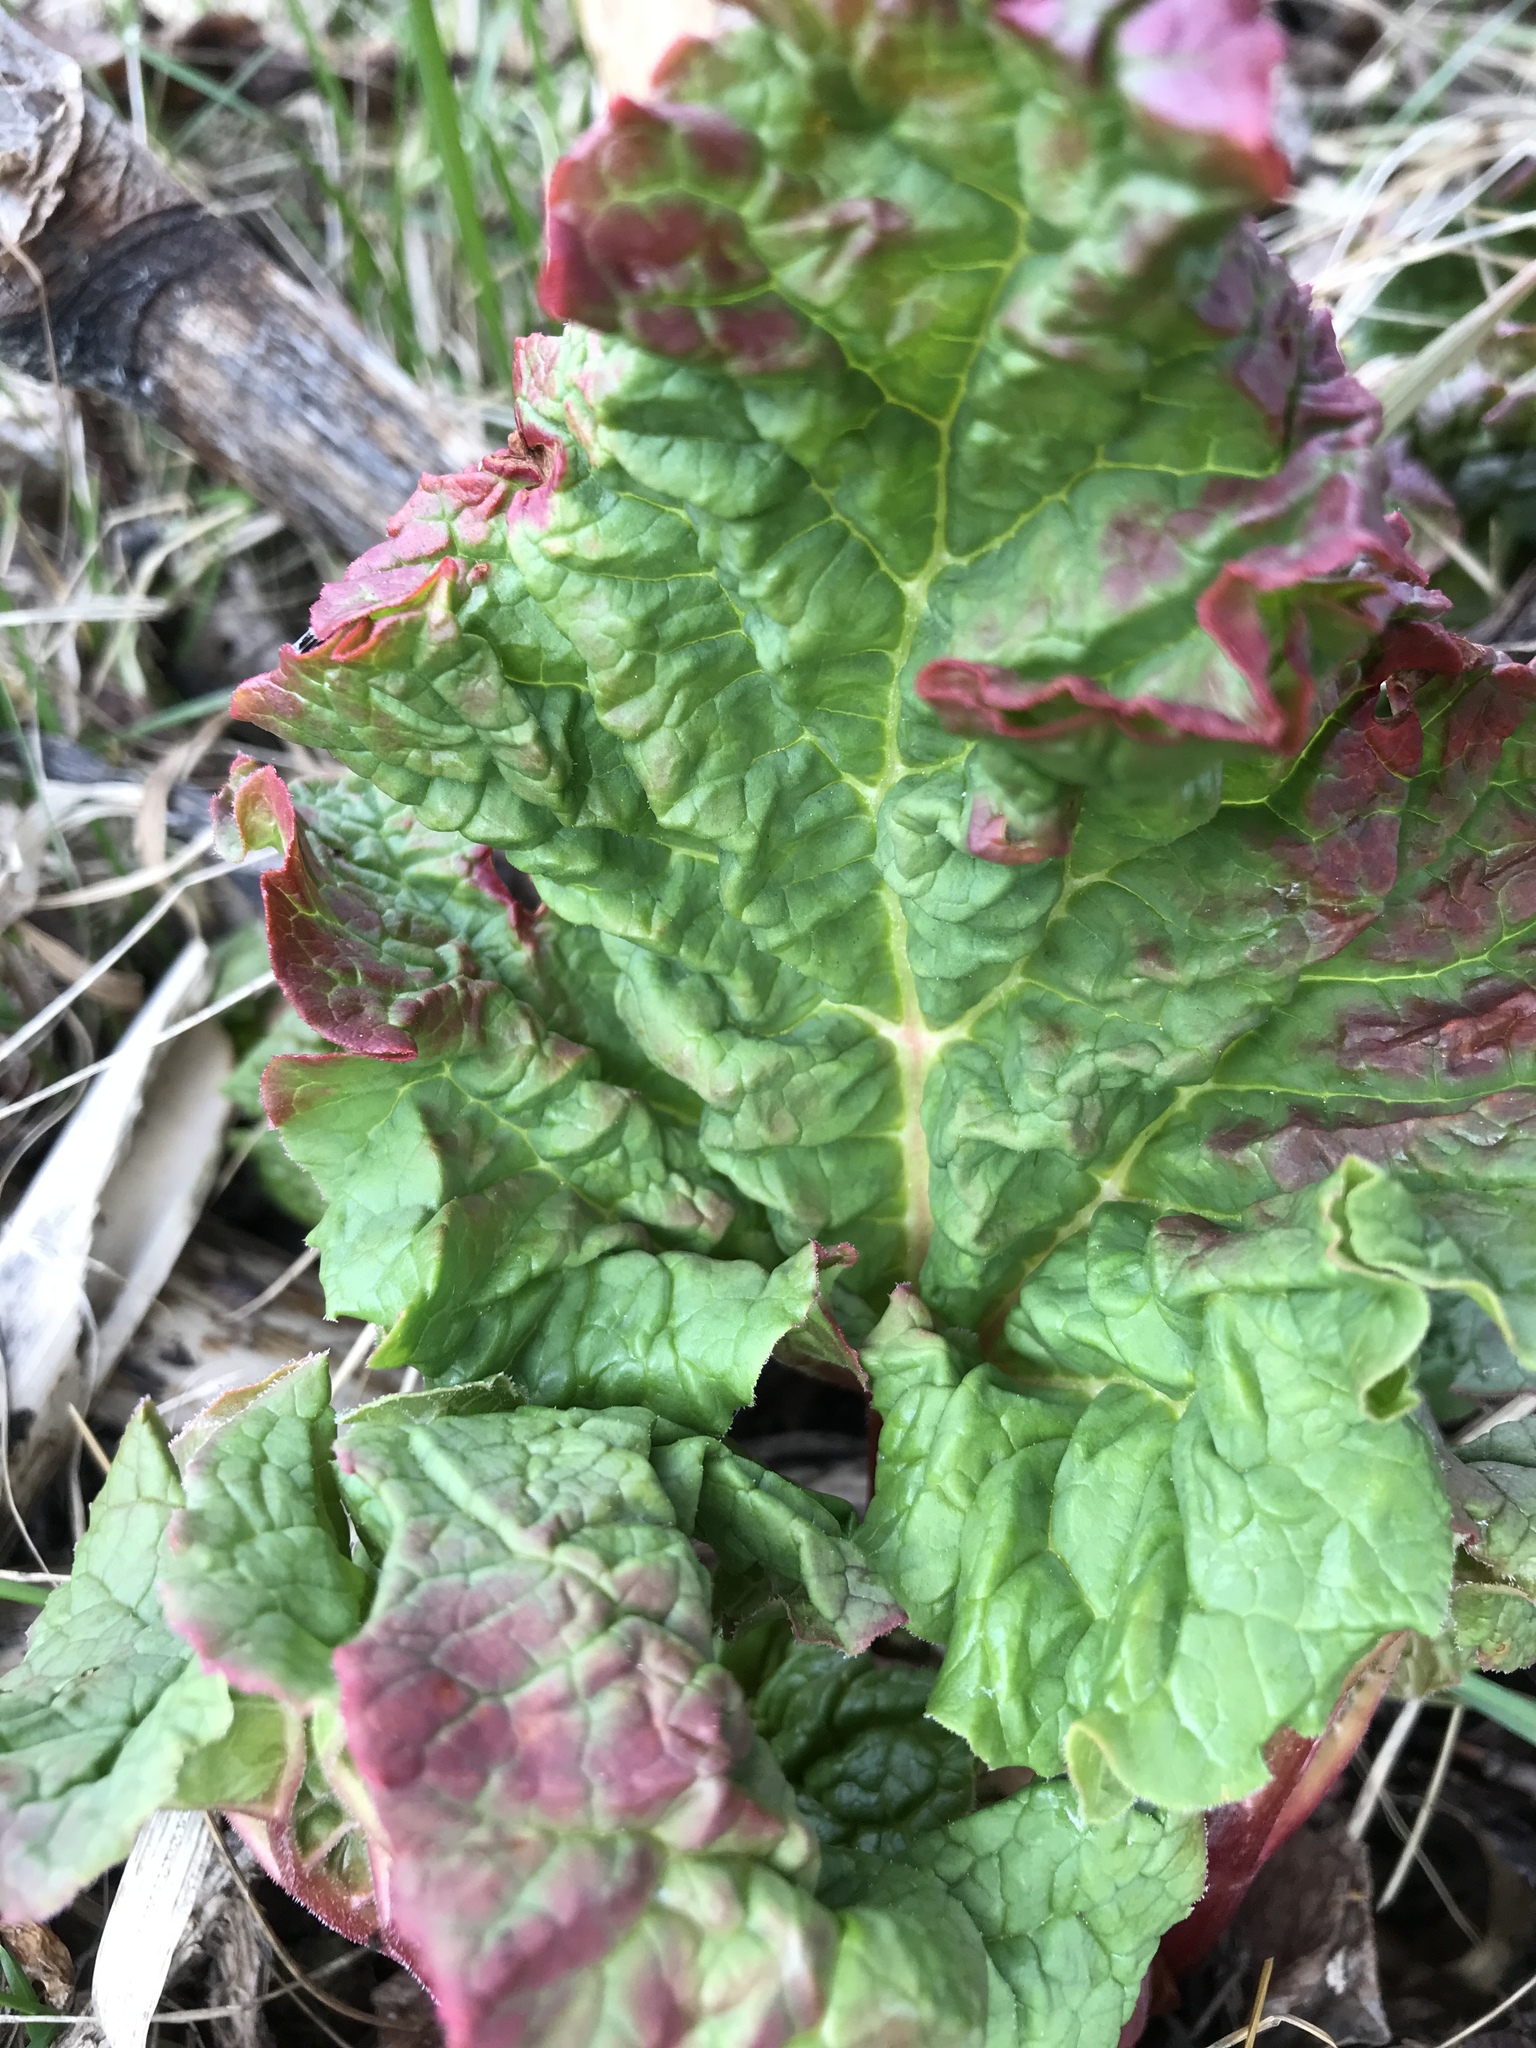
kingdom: Plantae
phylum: Tracheophyta
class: Magnoliopsida
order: Caryophyllales
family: Polygonaceae
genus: Rheum
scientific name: Rheum rhabarbarum
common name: Garden rhubarb
